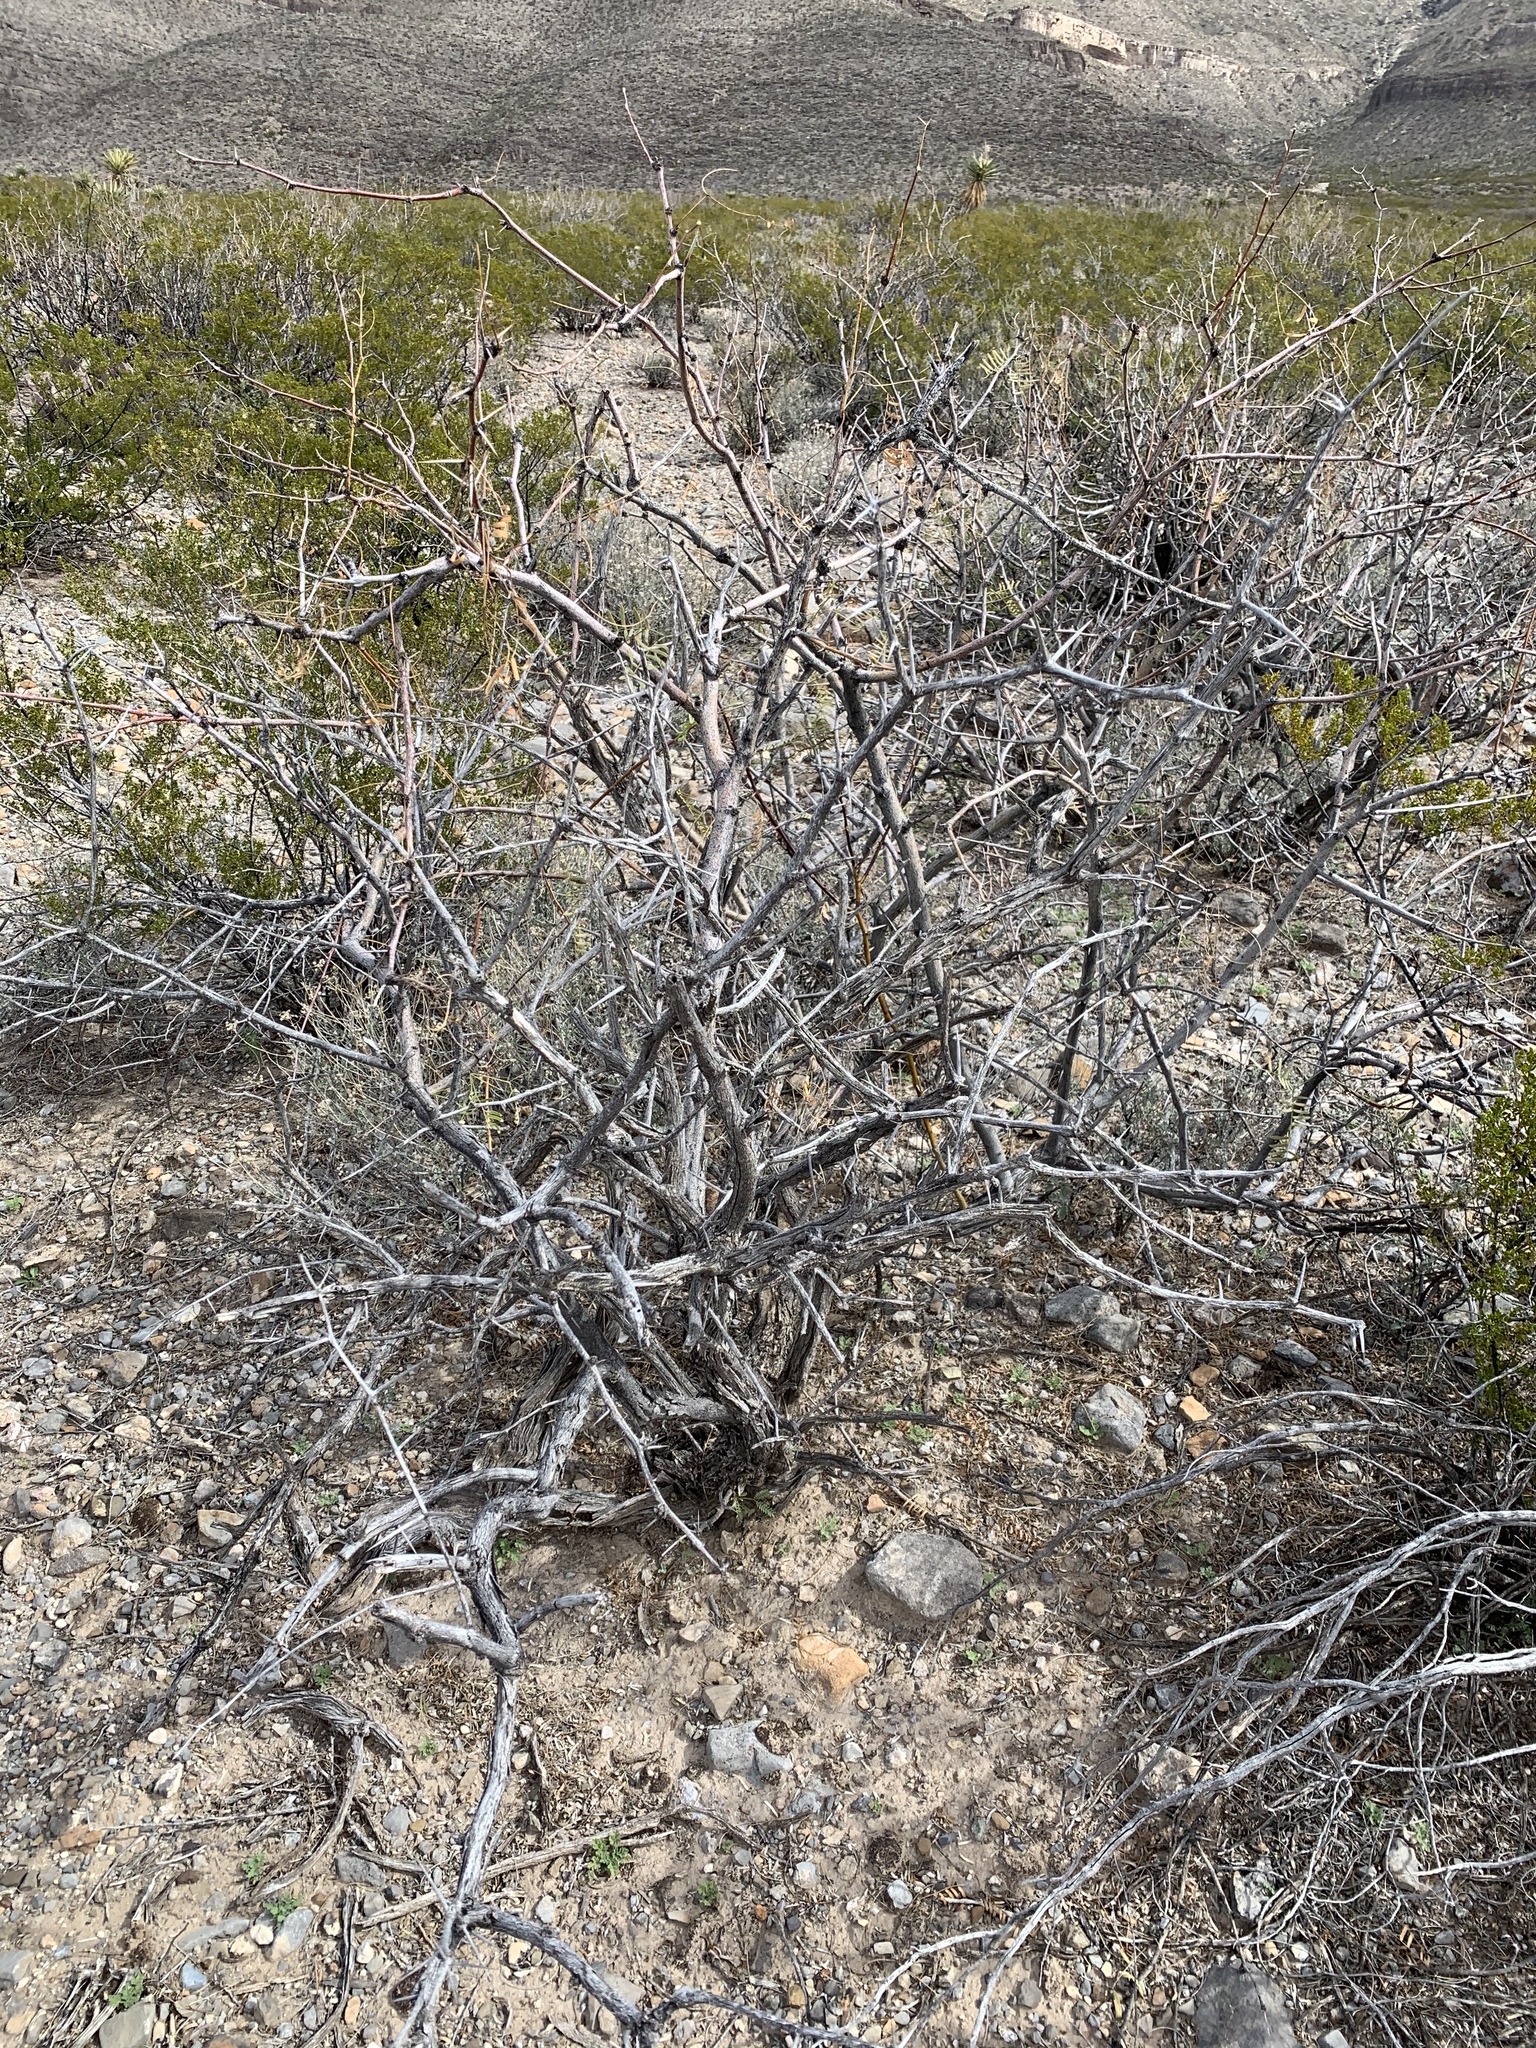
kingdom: Plantae
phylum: Tracheophyta
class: Magnoliopsida
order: Fabales
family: Fabaceae
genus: Prosopis
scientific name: Prosopis glandulosa
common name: Honey mesquite
